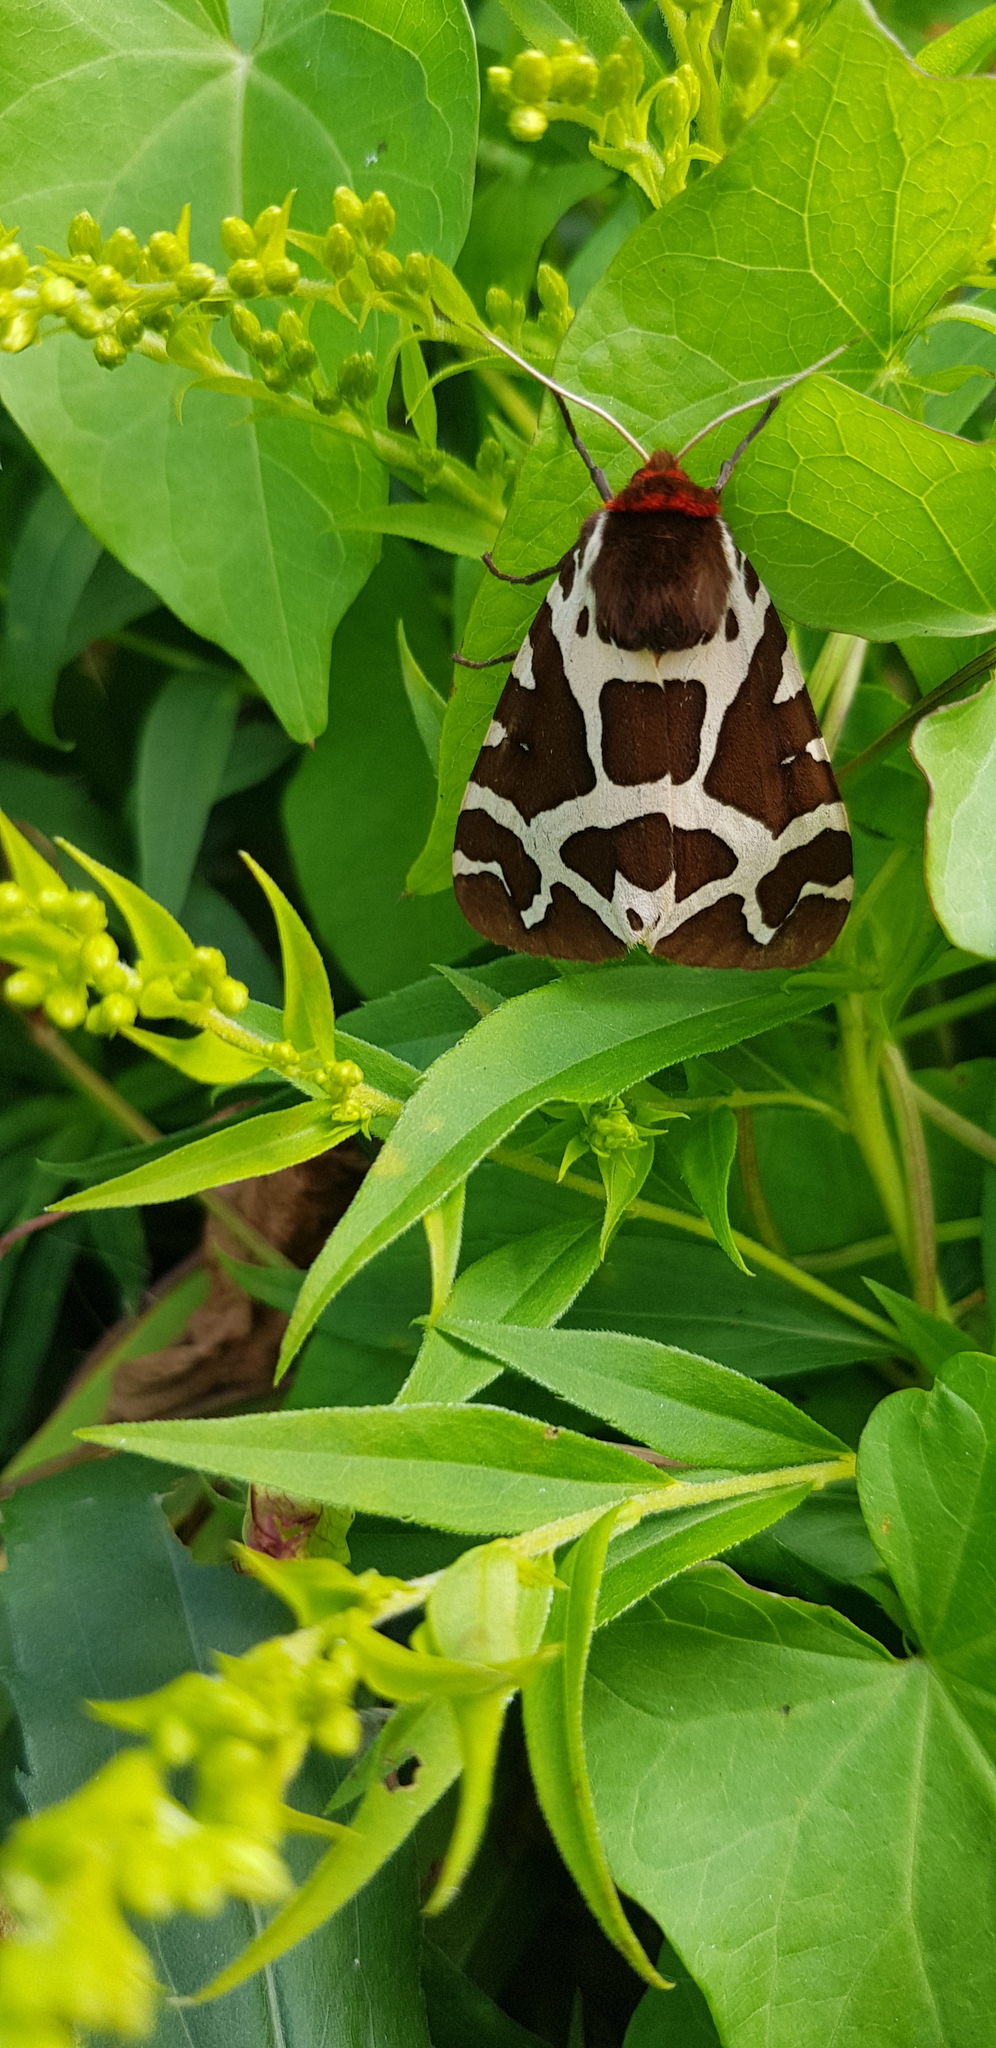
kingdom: Animalia
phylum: Arthropoda
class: Insecta
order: Lepidoptera
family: Erebidae
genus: Arctia
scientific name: Arctia caja
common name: Garden tiger
